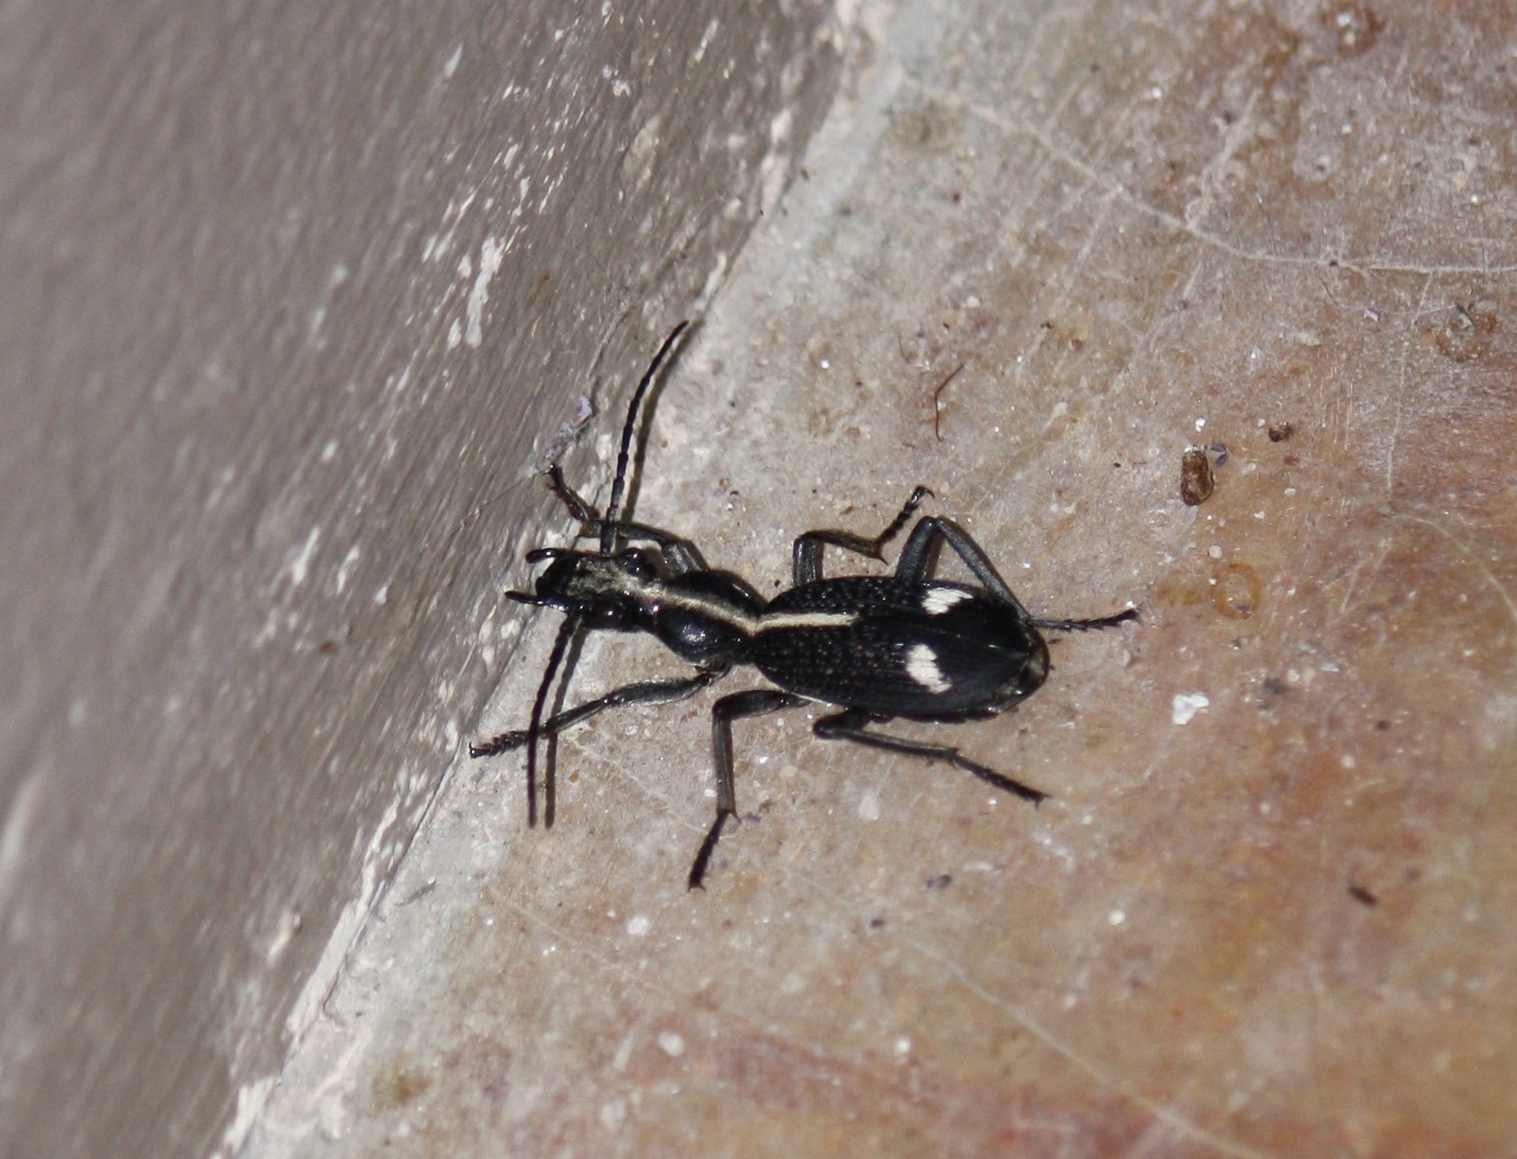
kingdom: Animalia
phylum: Arthropoda
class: Insecta
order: Coleoptera
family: Carabidae
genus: Cypholoba
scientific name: Cypholoba graphipteroides
